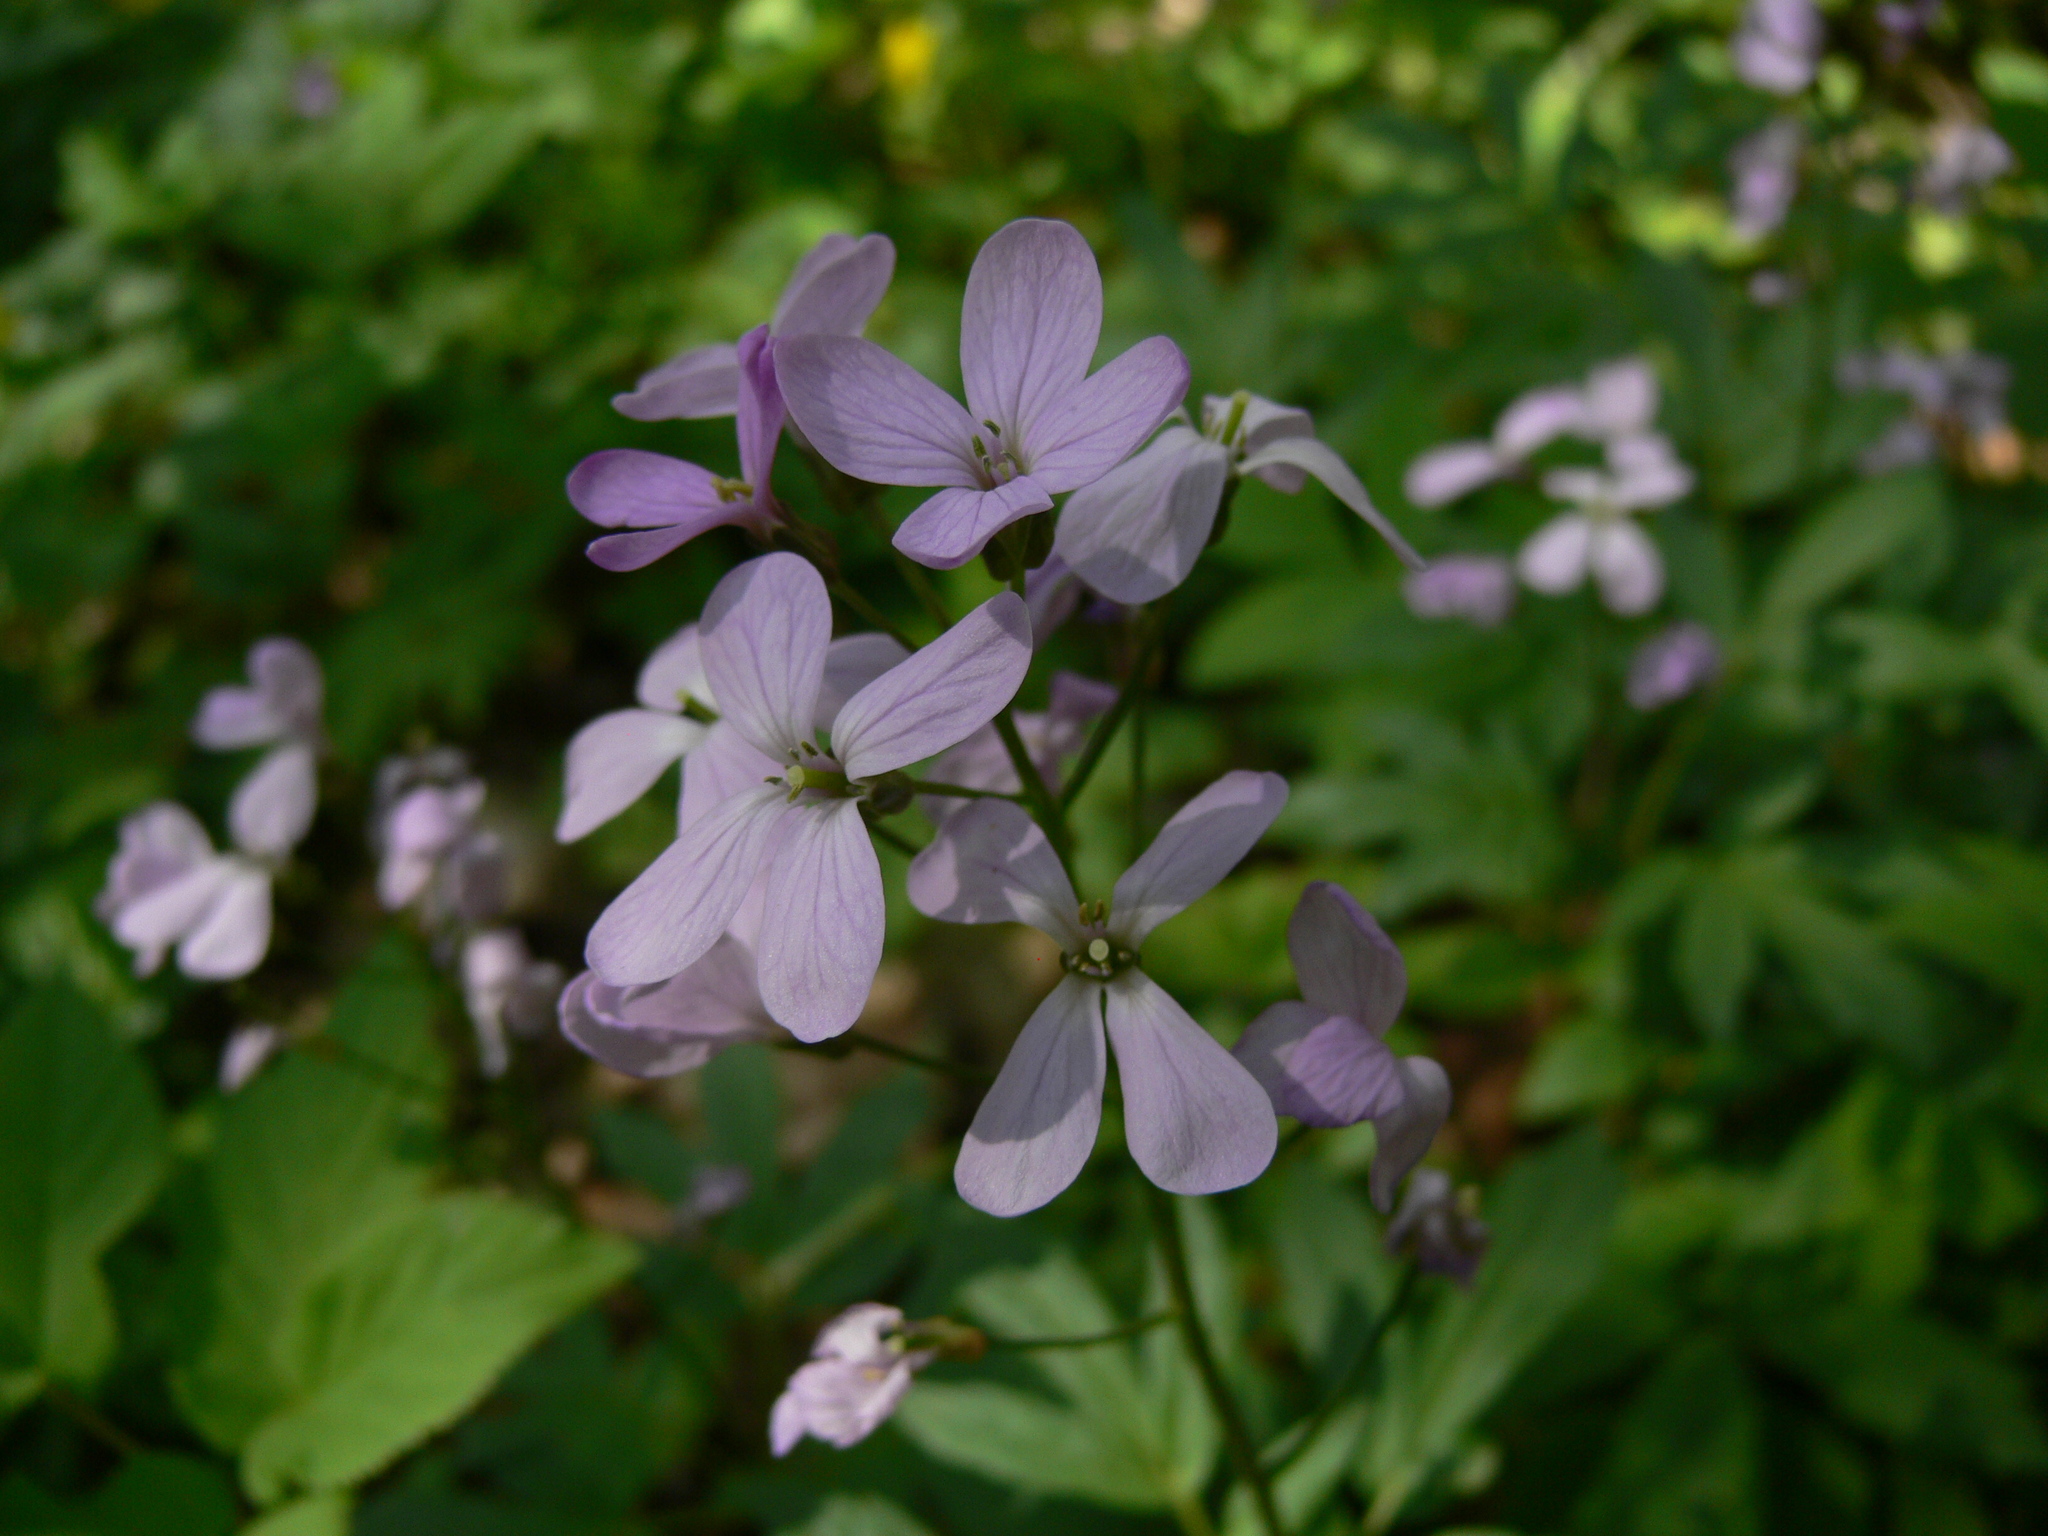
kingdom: Plantae
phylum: Tracheophyta
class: Magnoliopsida
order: Brassicales
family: Brassicaceae
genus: Cardamine
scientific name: Cardamine quinquefolia
